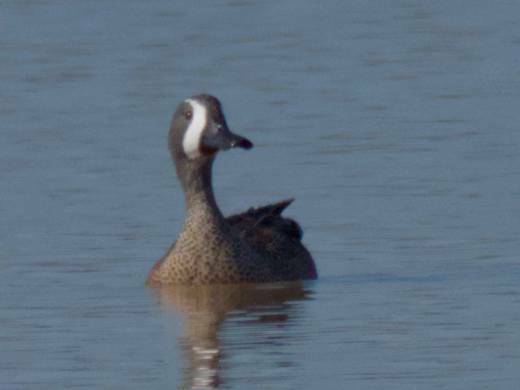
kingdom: Animalia
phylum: Chordata
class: Aves
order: Anseriformes
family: Anatidae
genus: Spatula
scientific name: Spatula discors
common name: Blue-winged teal
